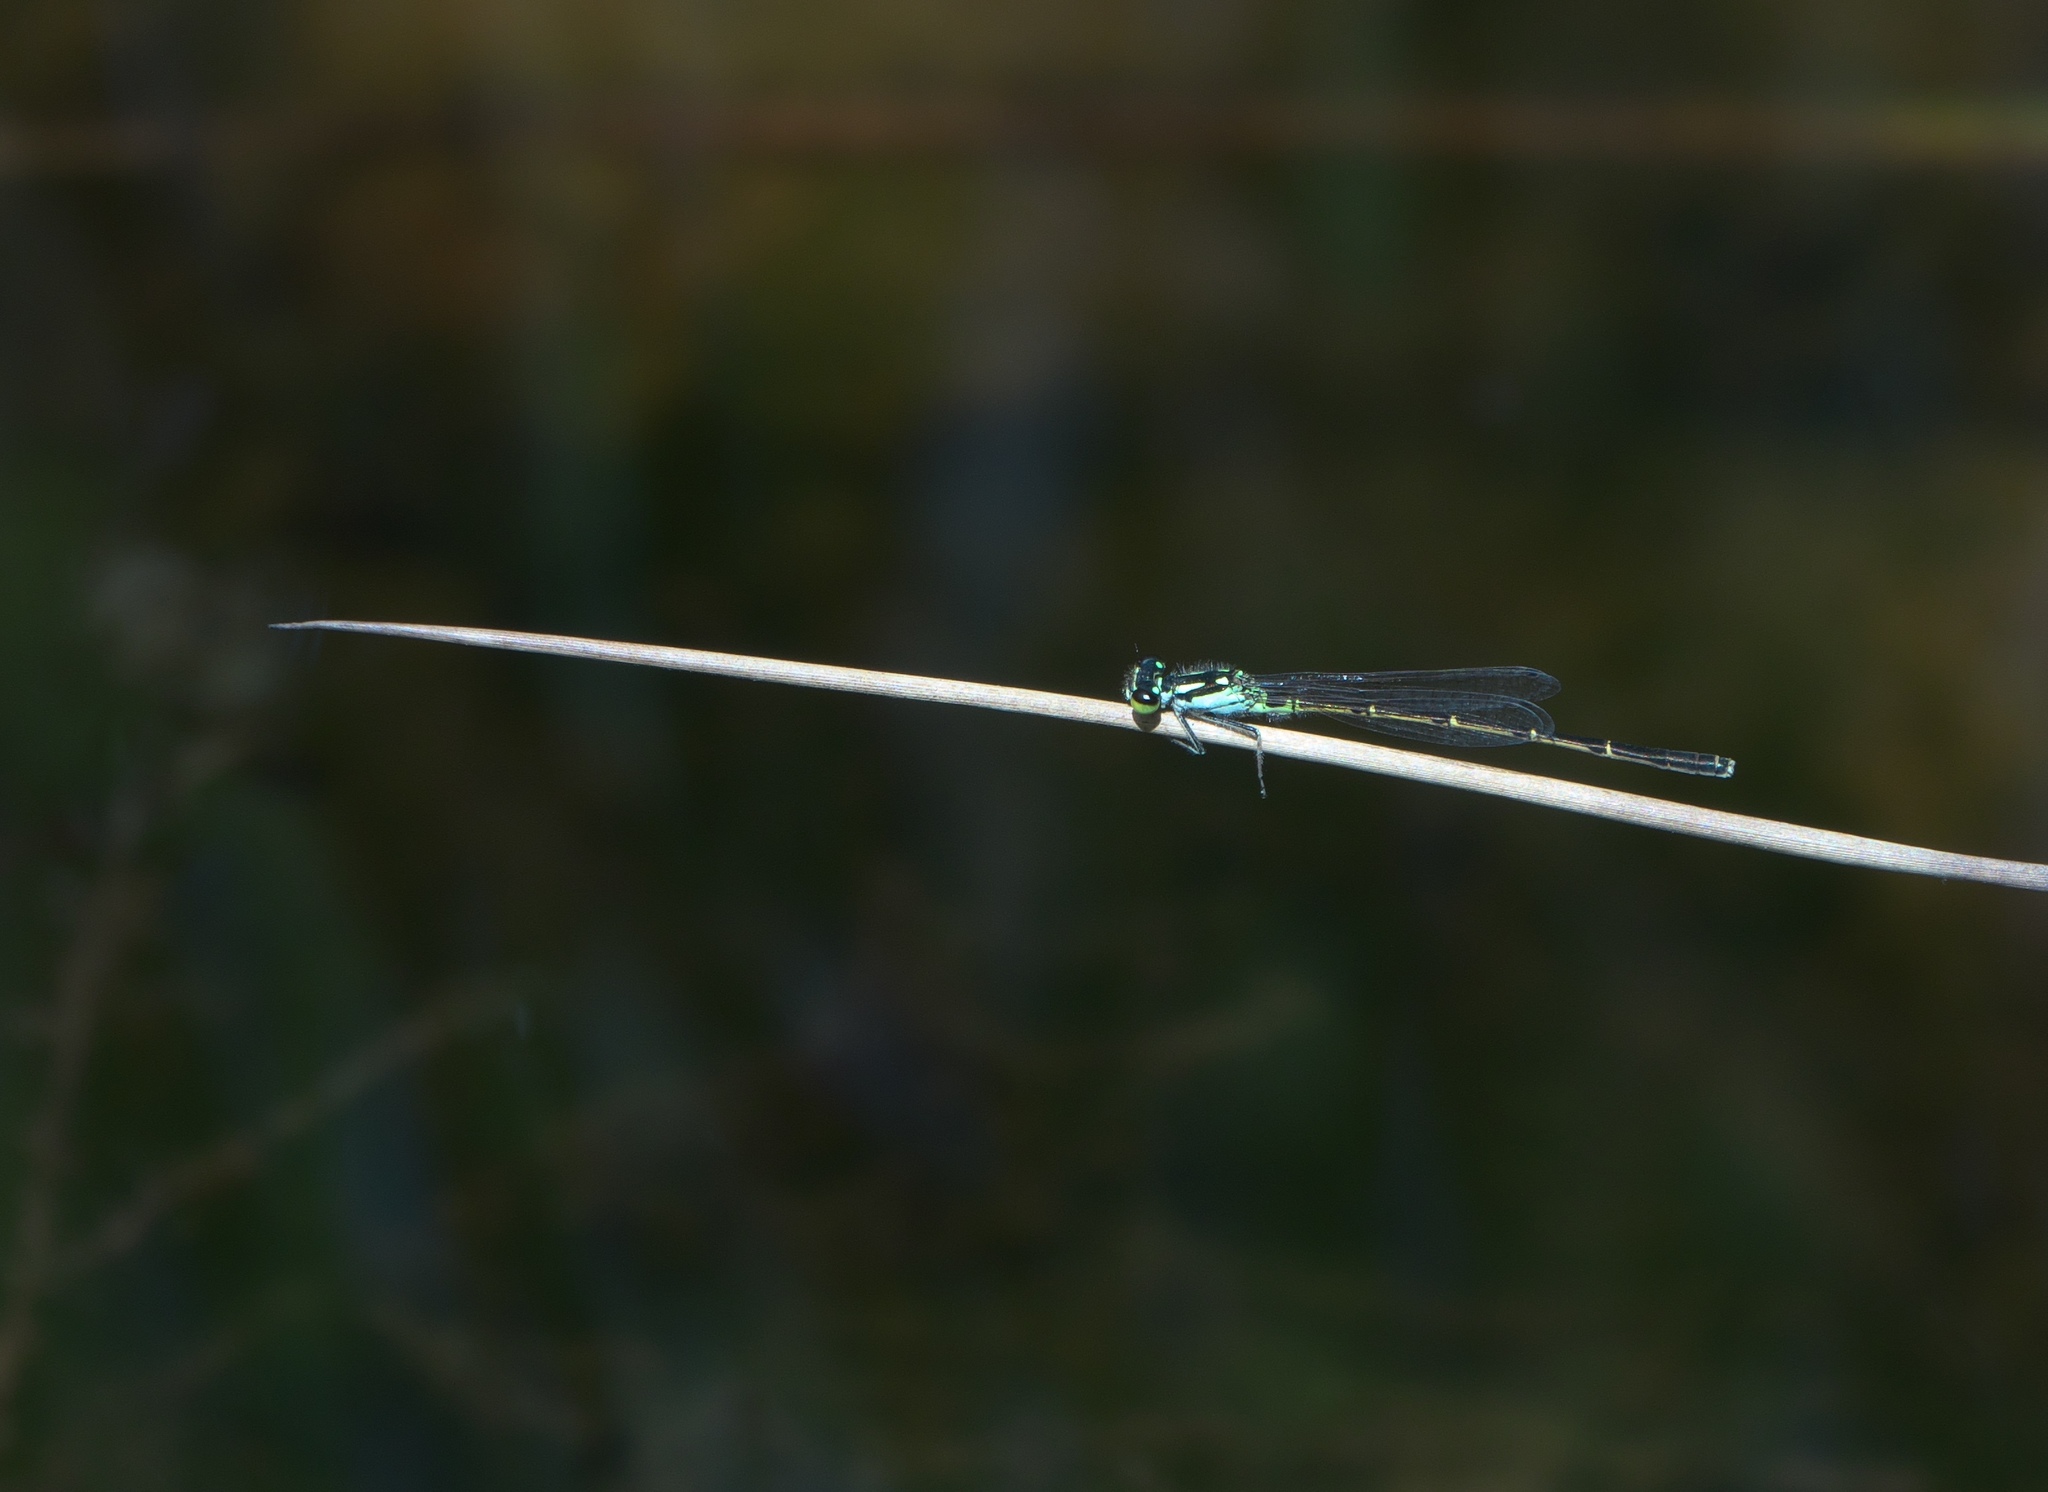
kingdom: Animalia
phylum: Arthropoda
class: Insecta
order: Odonata
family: Coenagrionidae
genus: Ischnura
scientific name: Ischnura posita
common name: Fragile forktail
